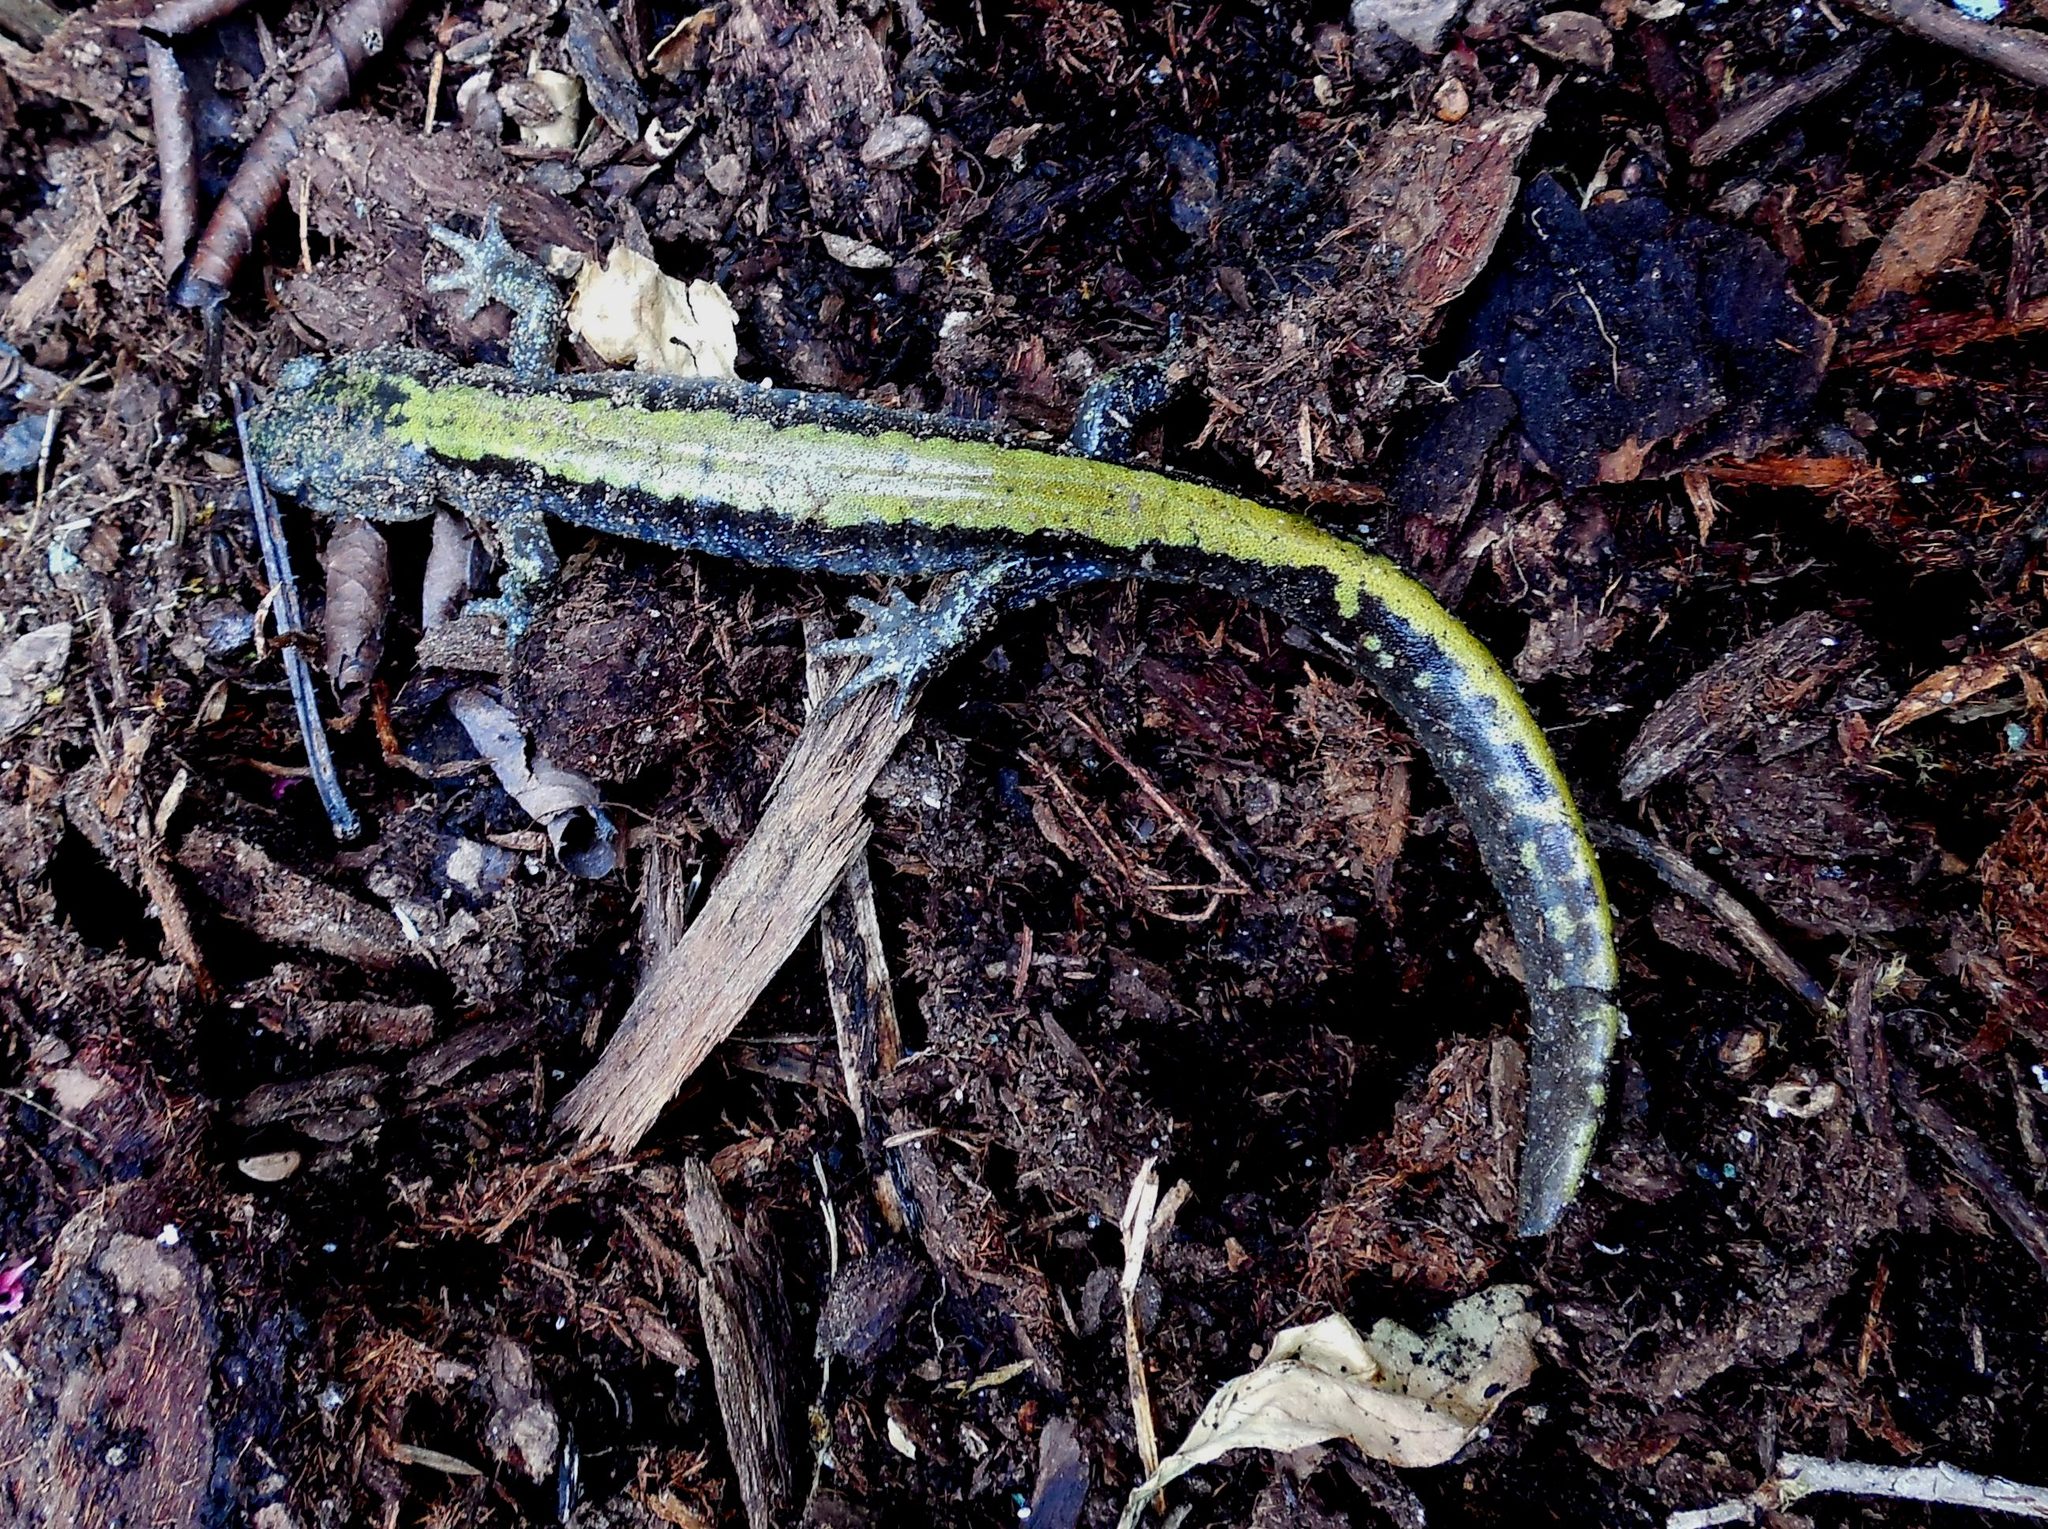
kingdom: Animalia
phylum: Chordata
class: Amphibia
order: Caudata
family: Ambystomatidae
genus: Ambystoma
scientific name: Ambystoma macrodactylum
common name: Long-toed salamander
